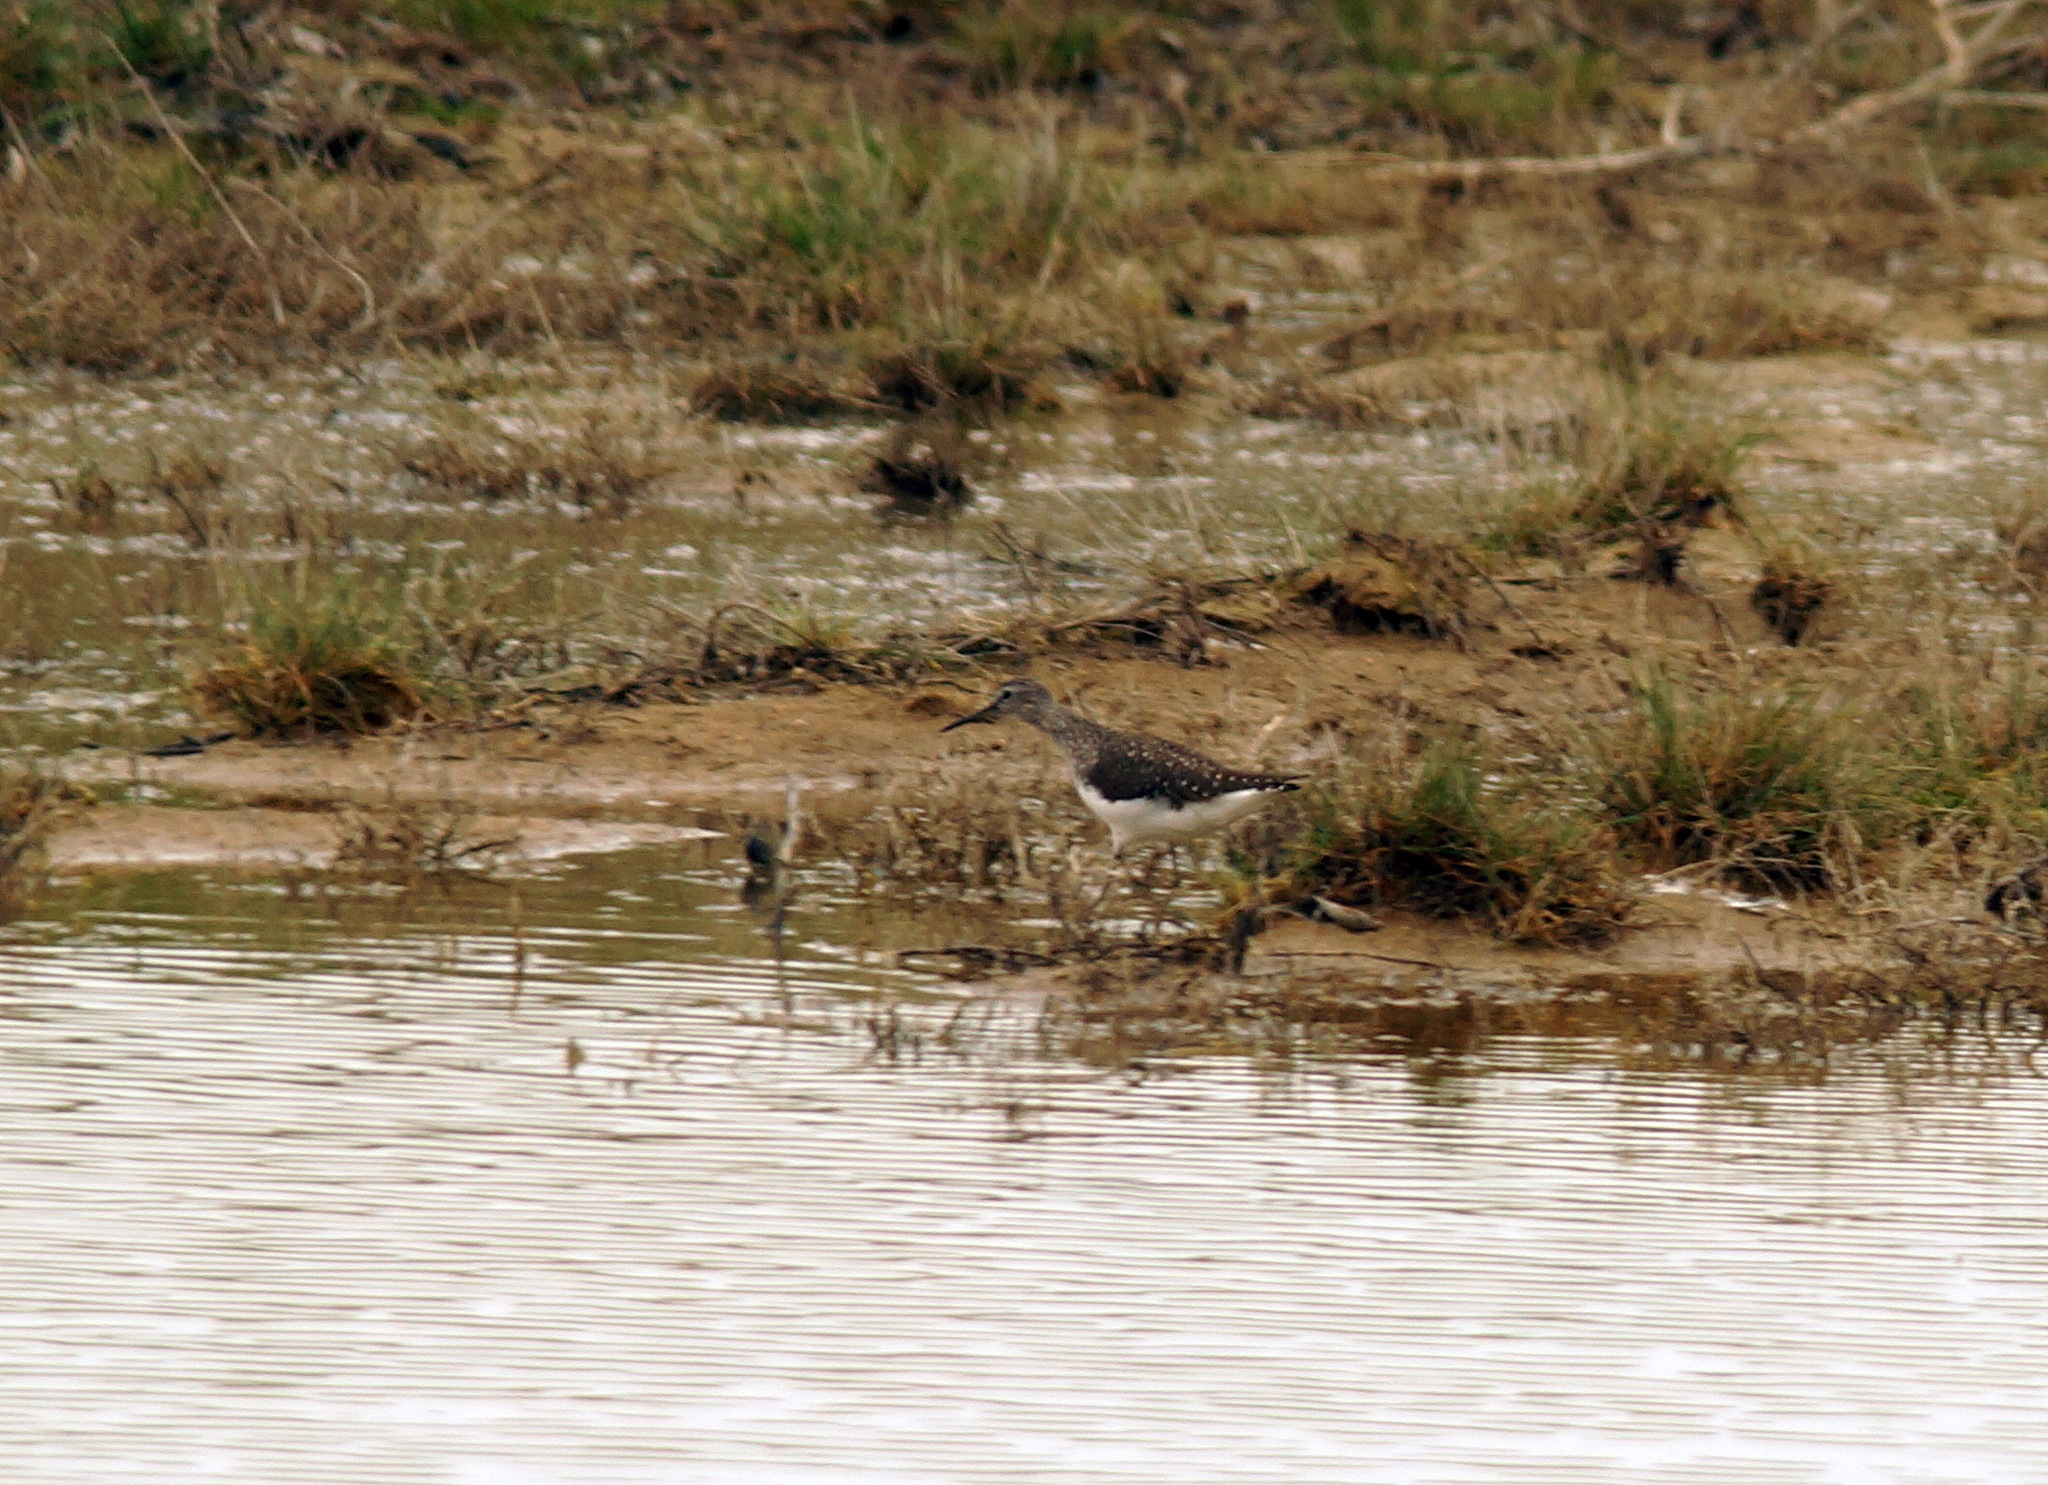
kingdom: Animalia
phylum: Chordata
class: Aves
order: Charadriiformes
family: Scolopacidae
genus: Tringa
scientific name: Tringa ochropus
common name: Green sandpiper
